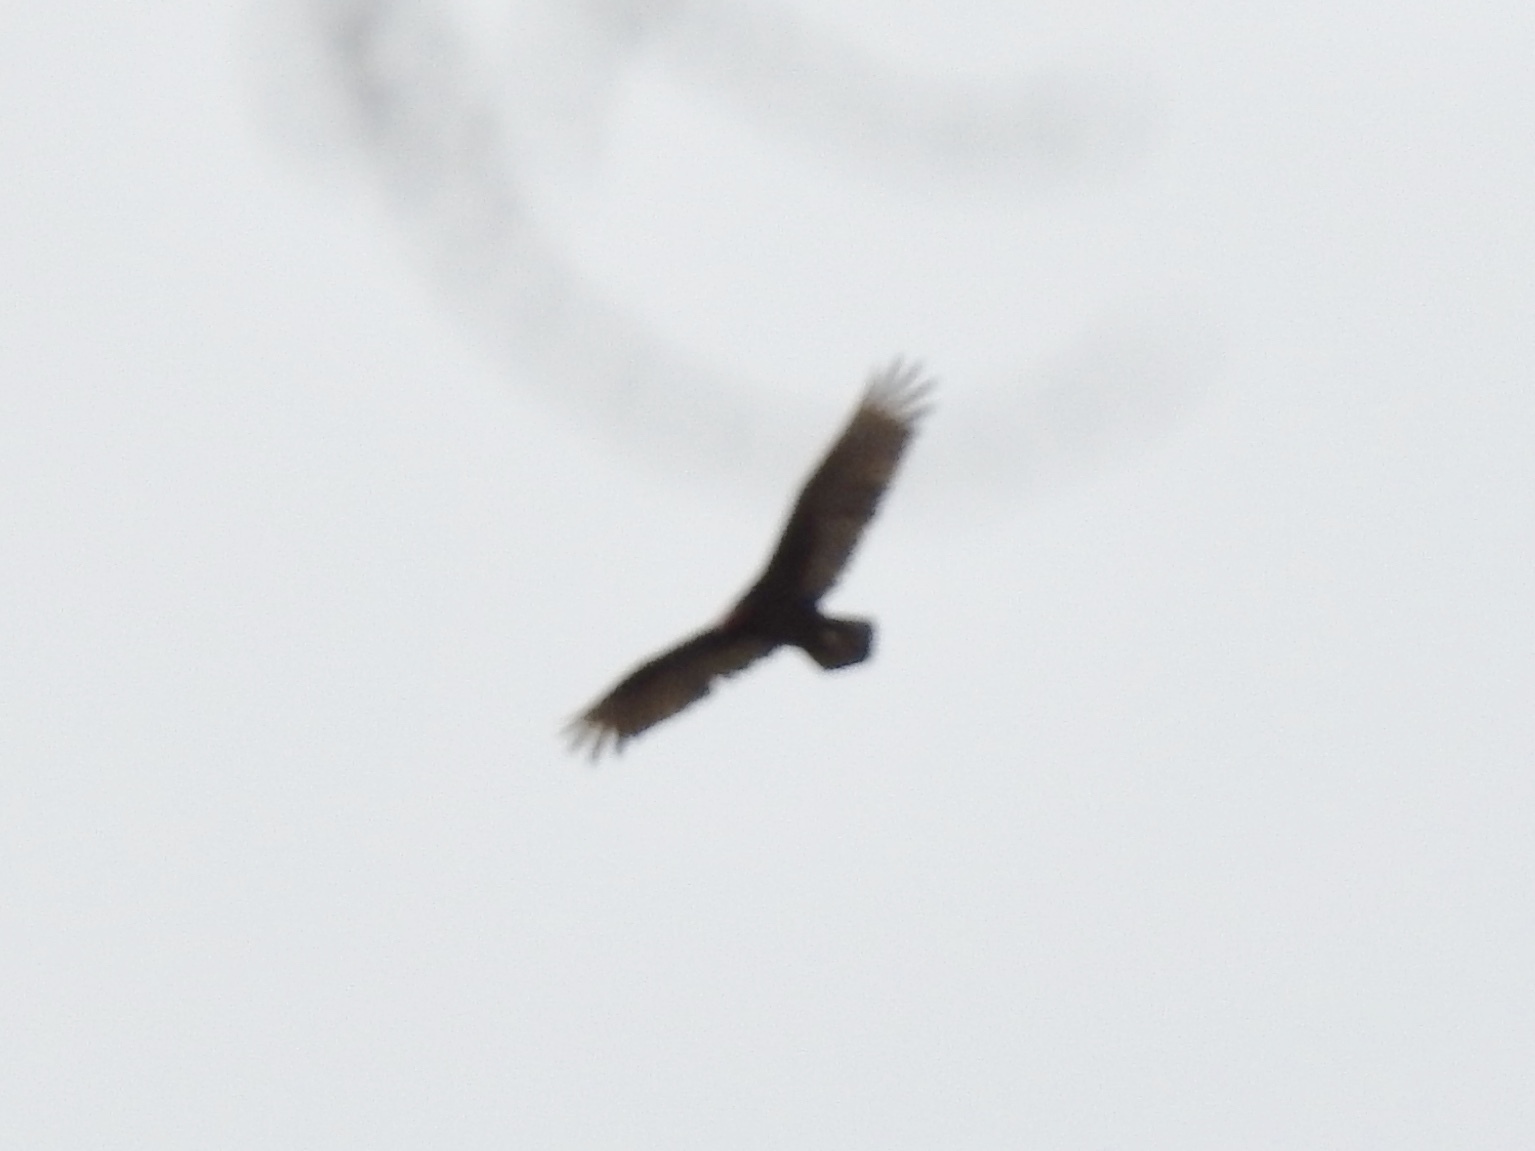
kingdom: Animalia
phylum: Chordata
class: Aves
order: Accipitriformes
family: Cathartidae
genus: Cathartes
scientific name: Cathartes aura
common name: Turkey vulture
